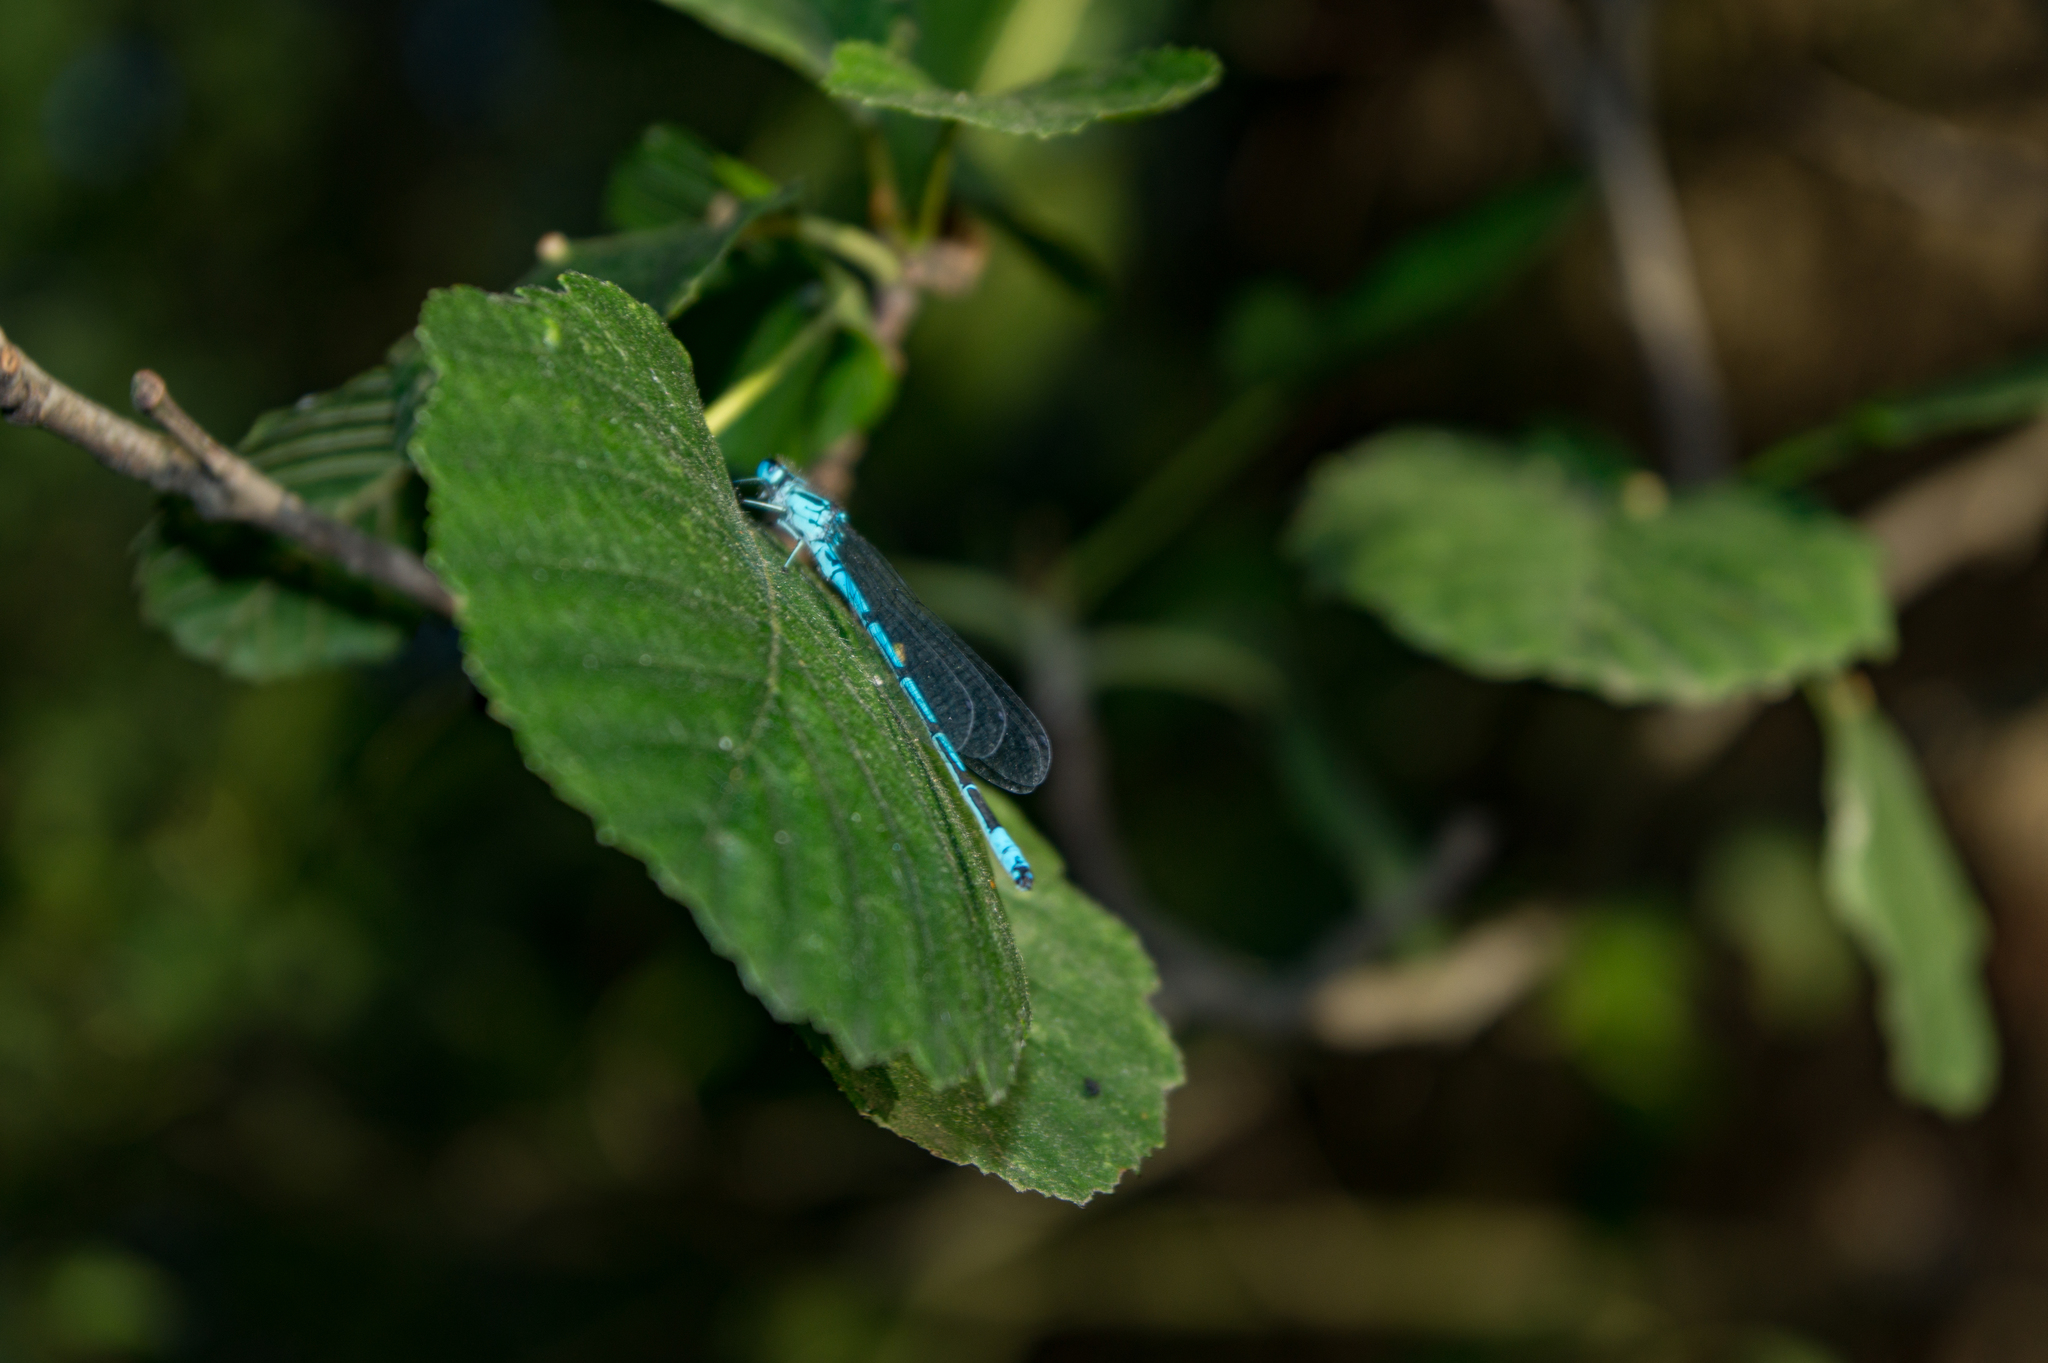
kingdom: Animalia
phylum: Arthropoda
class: Insecta
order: Odonata
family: Coenagrionidae
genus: Coenagrion
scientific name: Coenagrion puella
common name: Azure damselfly
